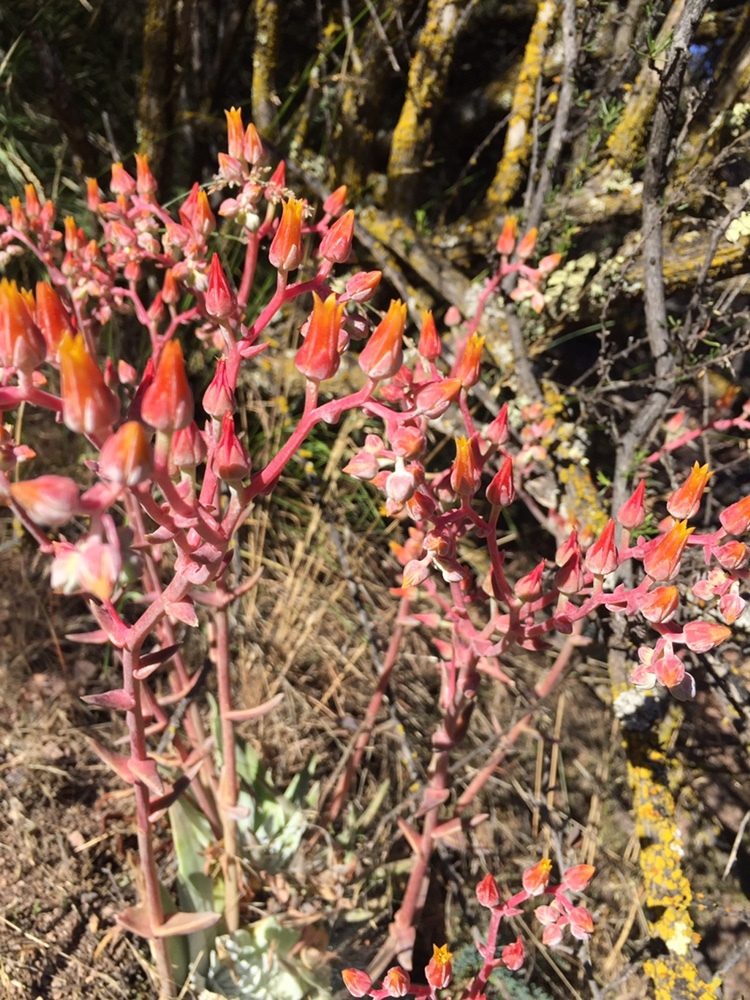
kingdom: Plantae
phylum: Tracheophyta
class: Magnoliopsida
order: Saxifragales
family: Crassulaceae
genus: Dudleya
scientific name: Dudleya lanceolata
